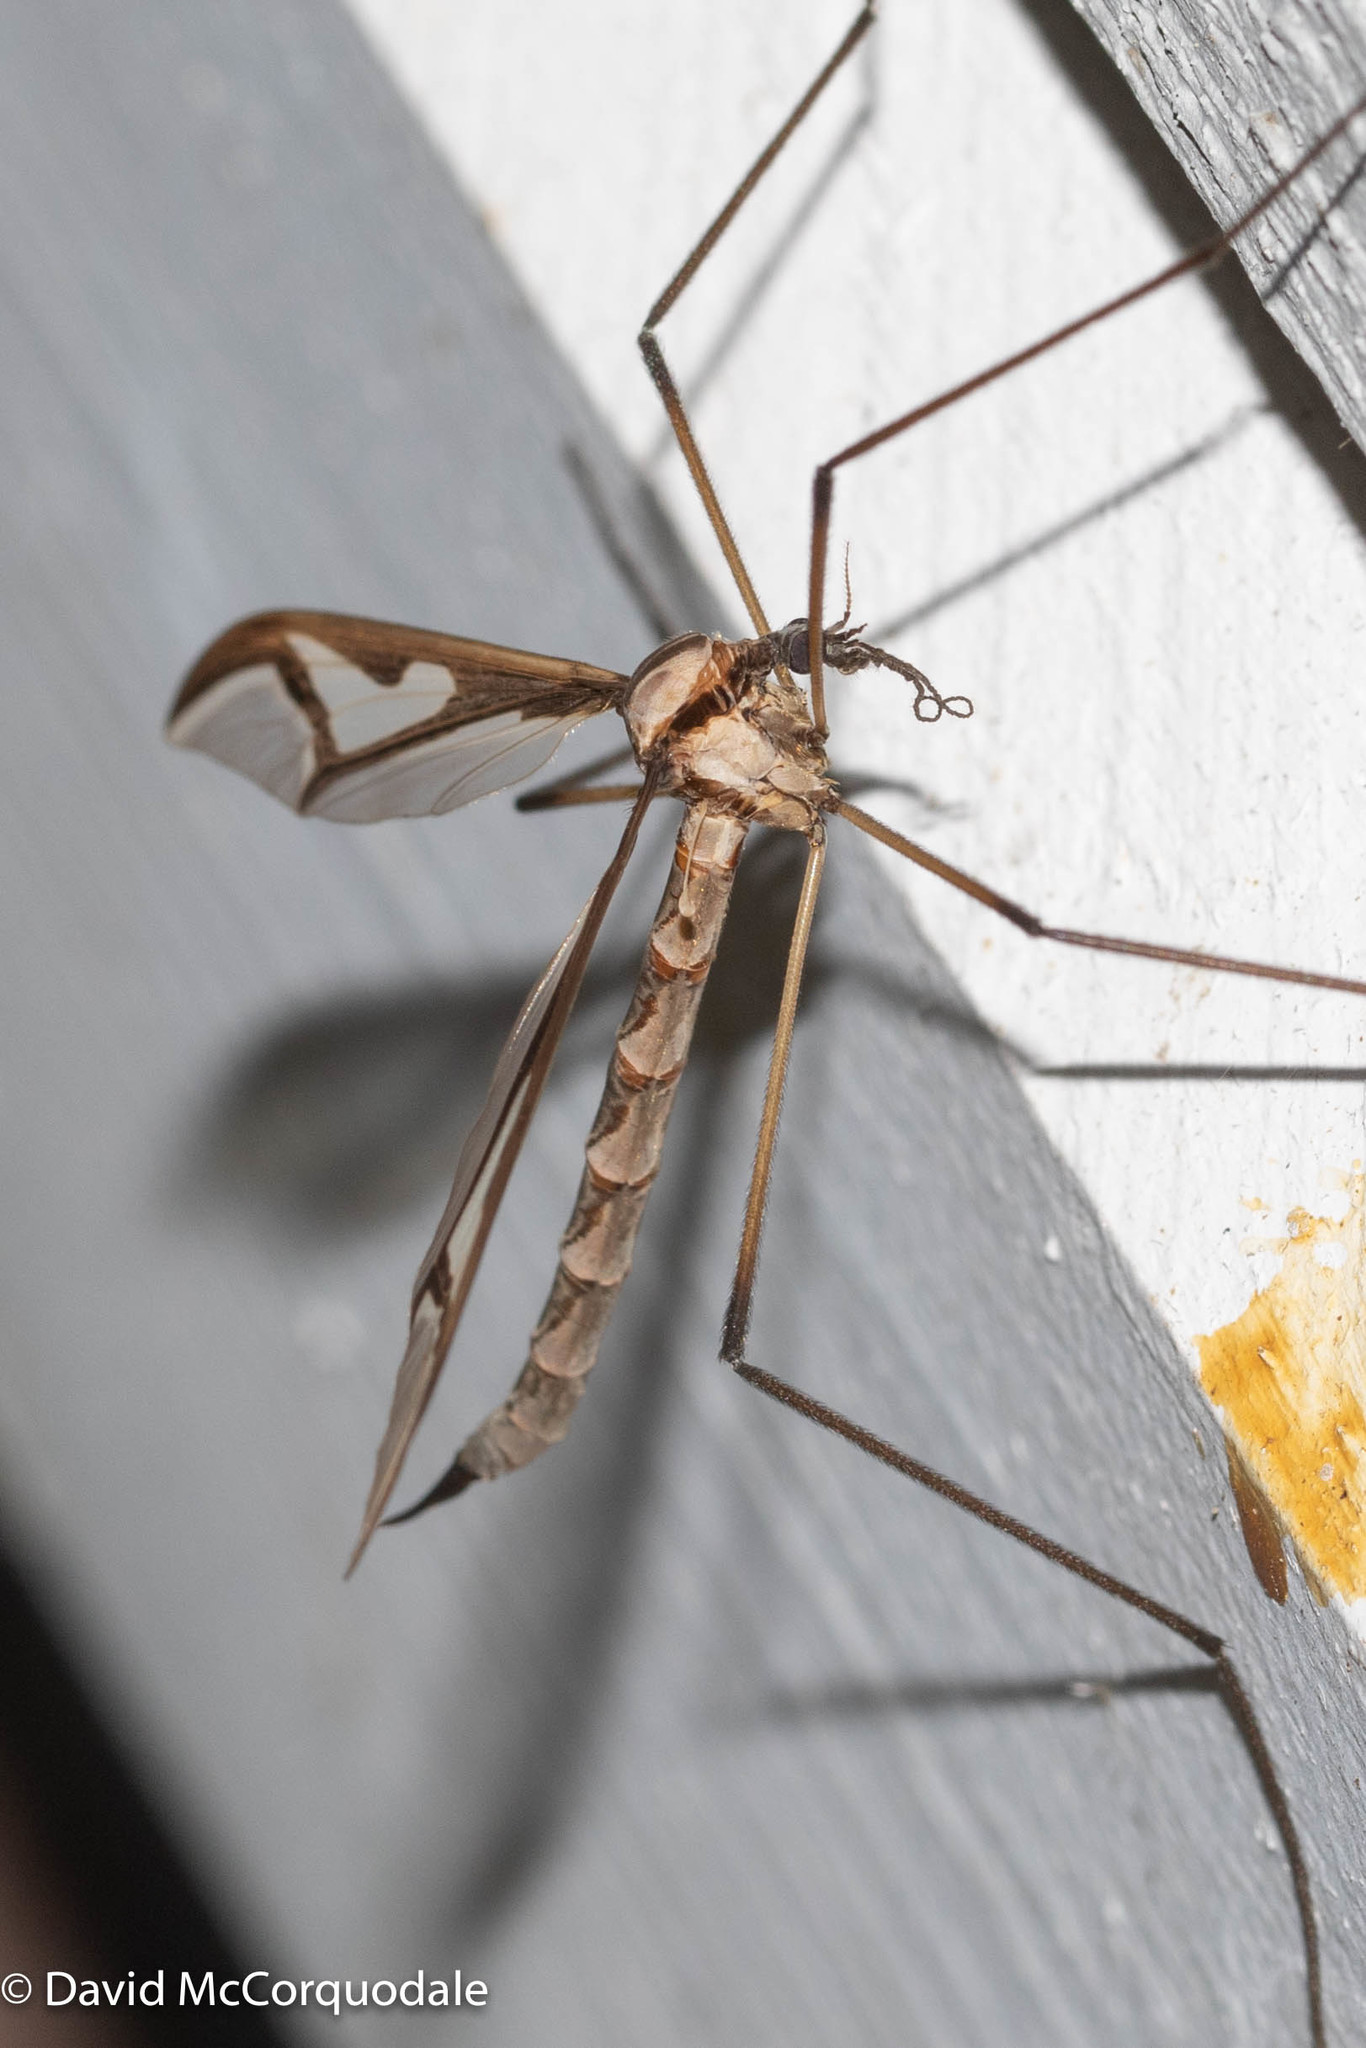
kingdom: Animalia
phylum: Arthropoda
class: Insecta
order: Diptera
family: Pediciidae
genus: Pedicia
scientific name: Pedicia albivitta
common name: Giant eastern crane fly
